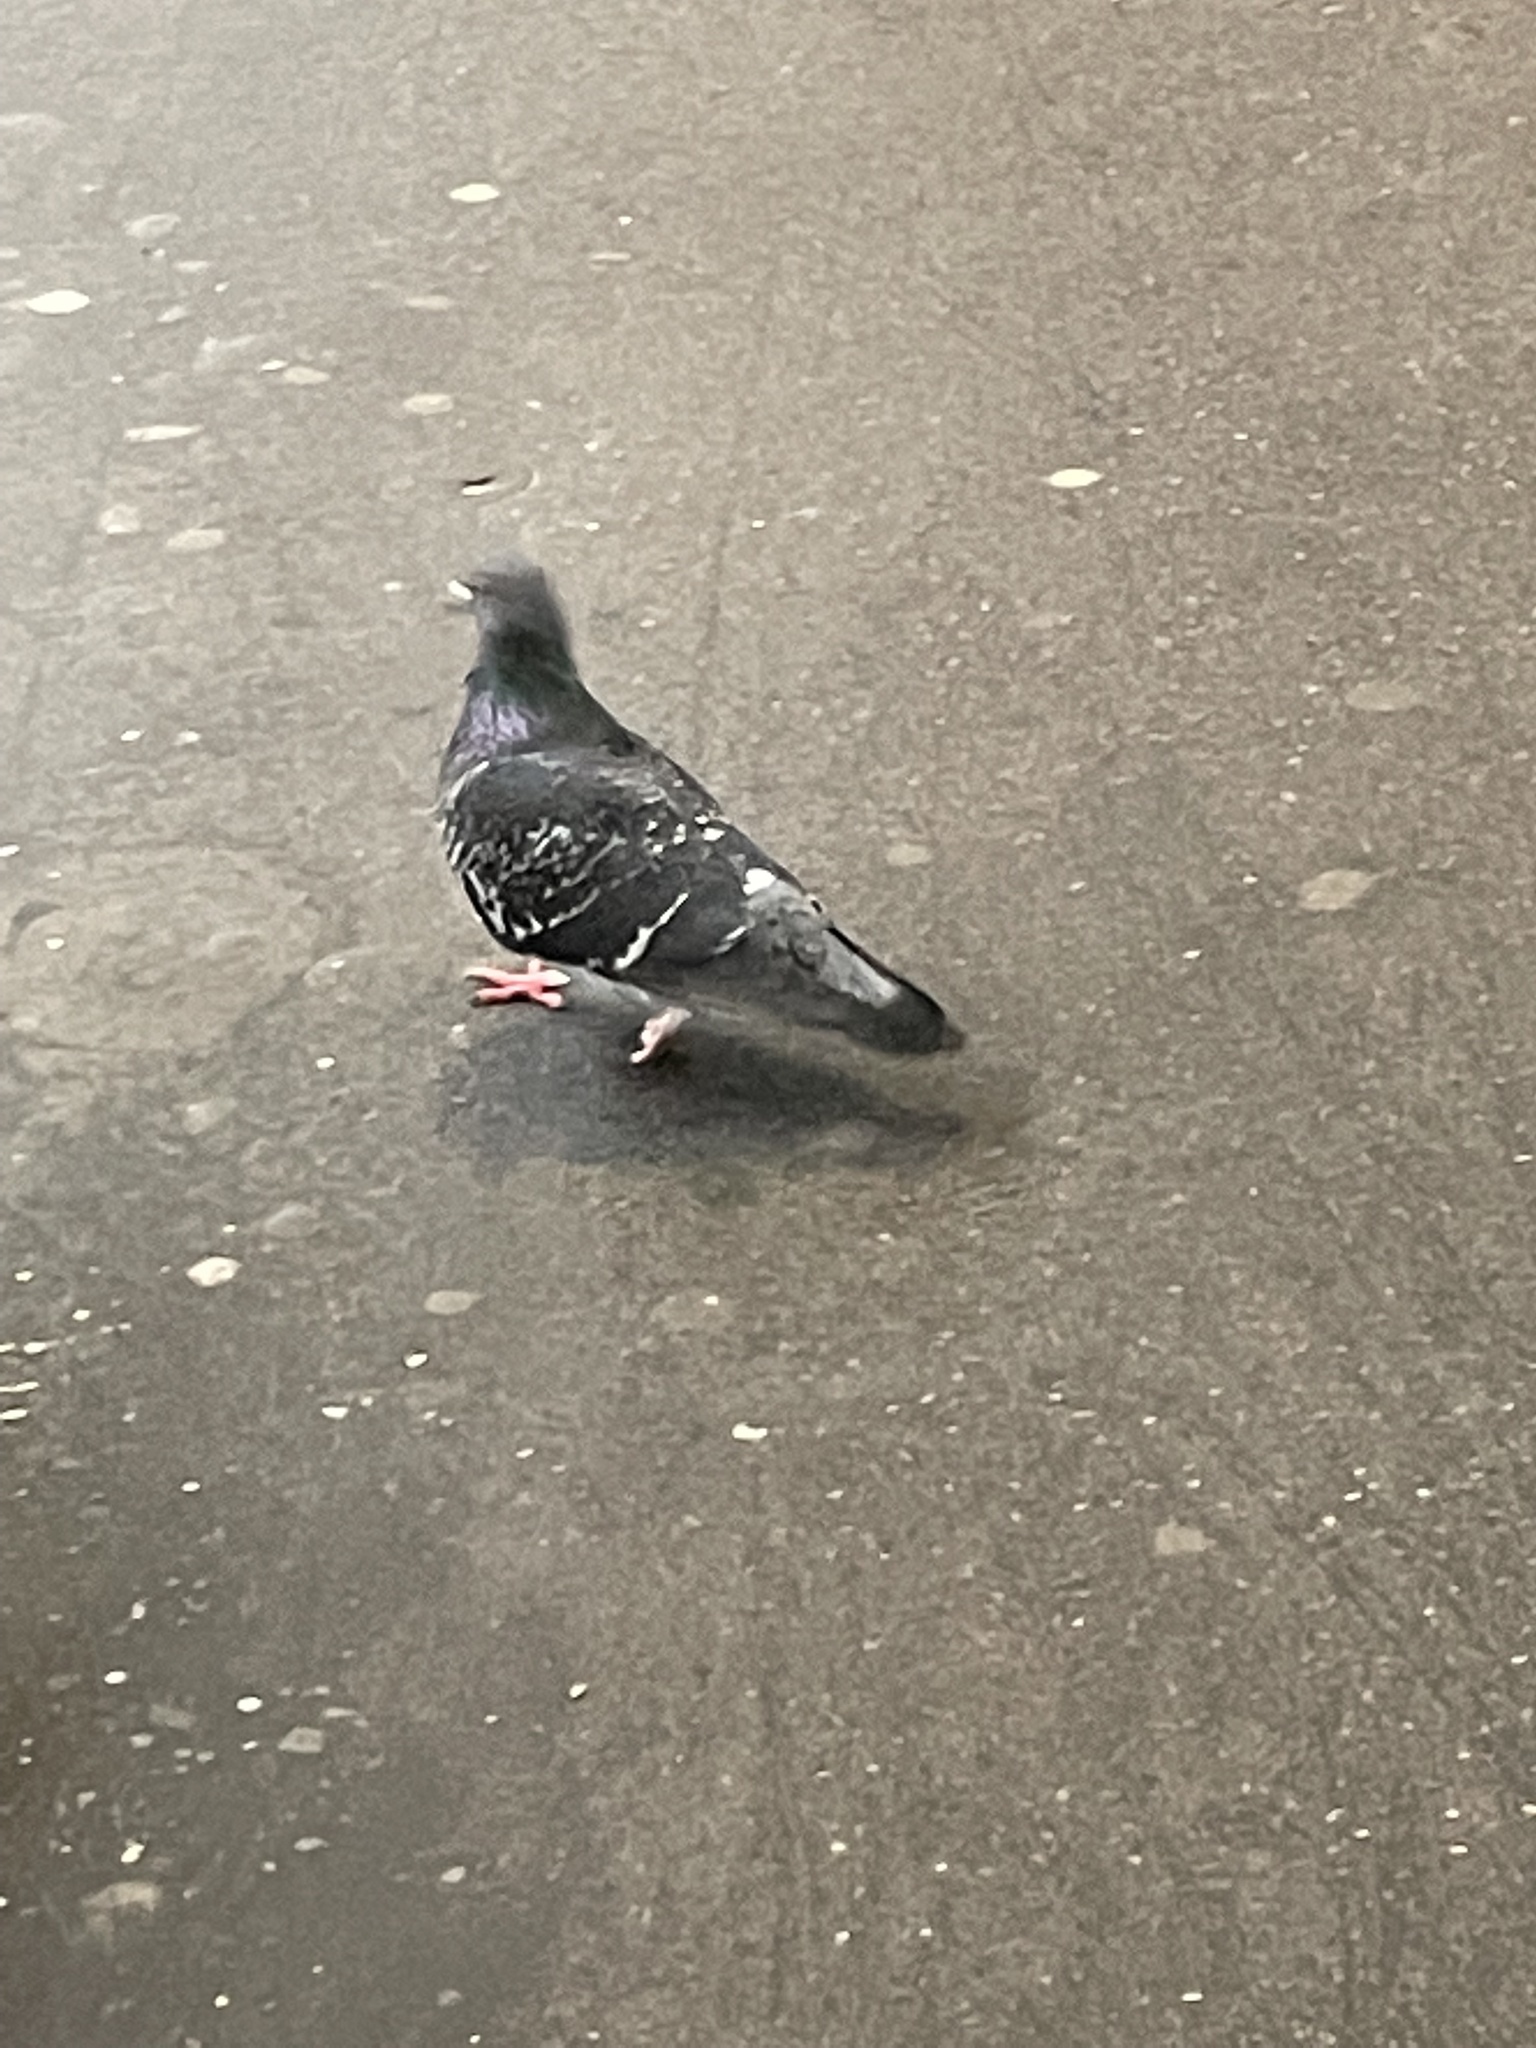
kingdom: Animalia
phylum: Chordata
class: Aves
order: Columbiformes
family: Columbidae
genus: Columba
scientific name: Columba livia
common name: Rock pigeon
